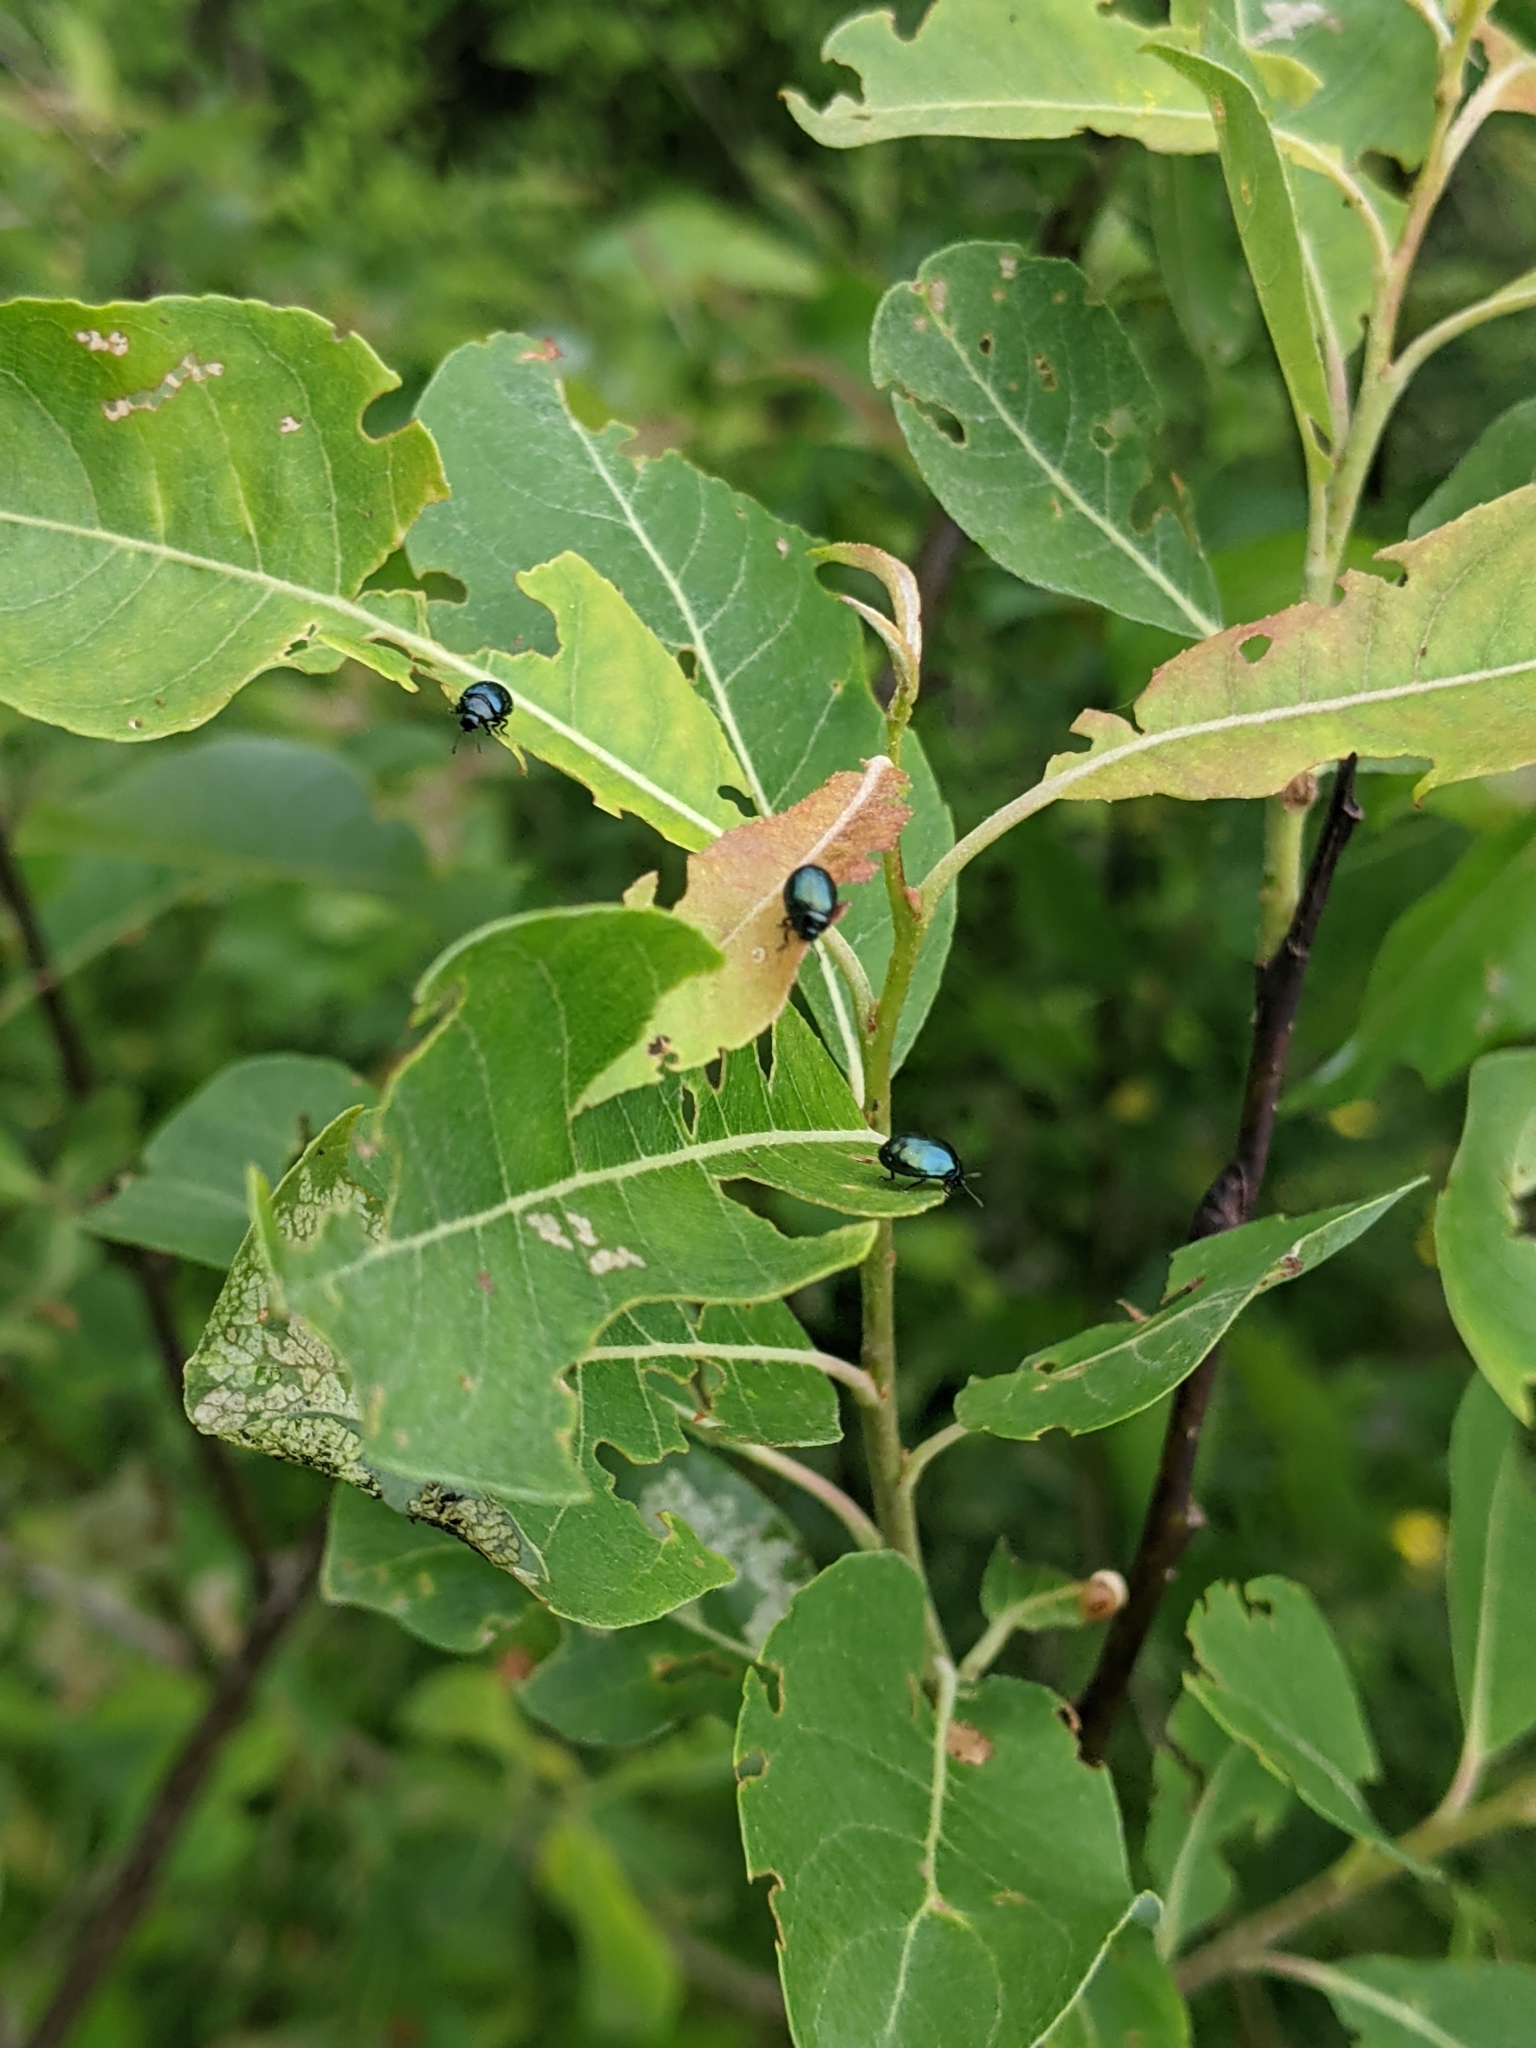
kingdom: Animalia
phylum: Arthropoda
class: Insecta
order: Coleoptera
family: Chrysomelidae
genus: Plagiodera
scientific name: Plagiodera versicolora
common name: Imported willow leaf beetle
